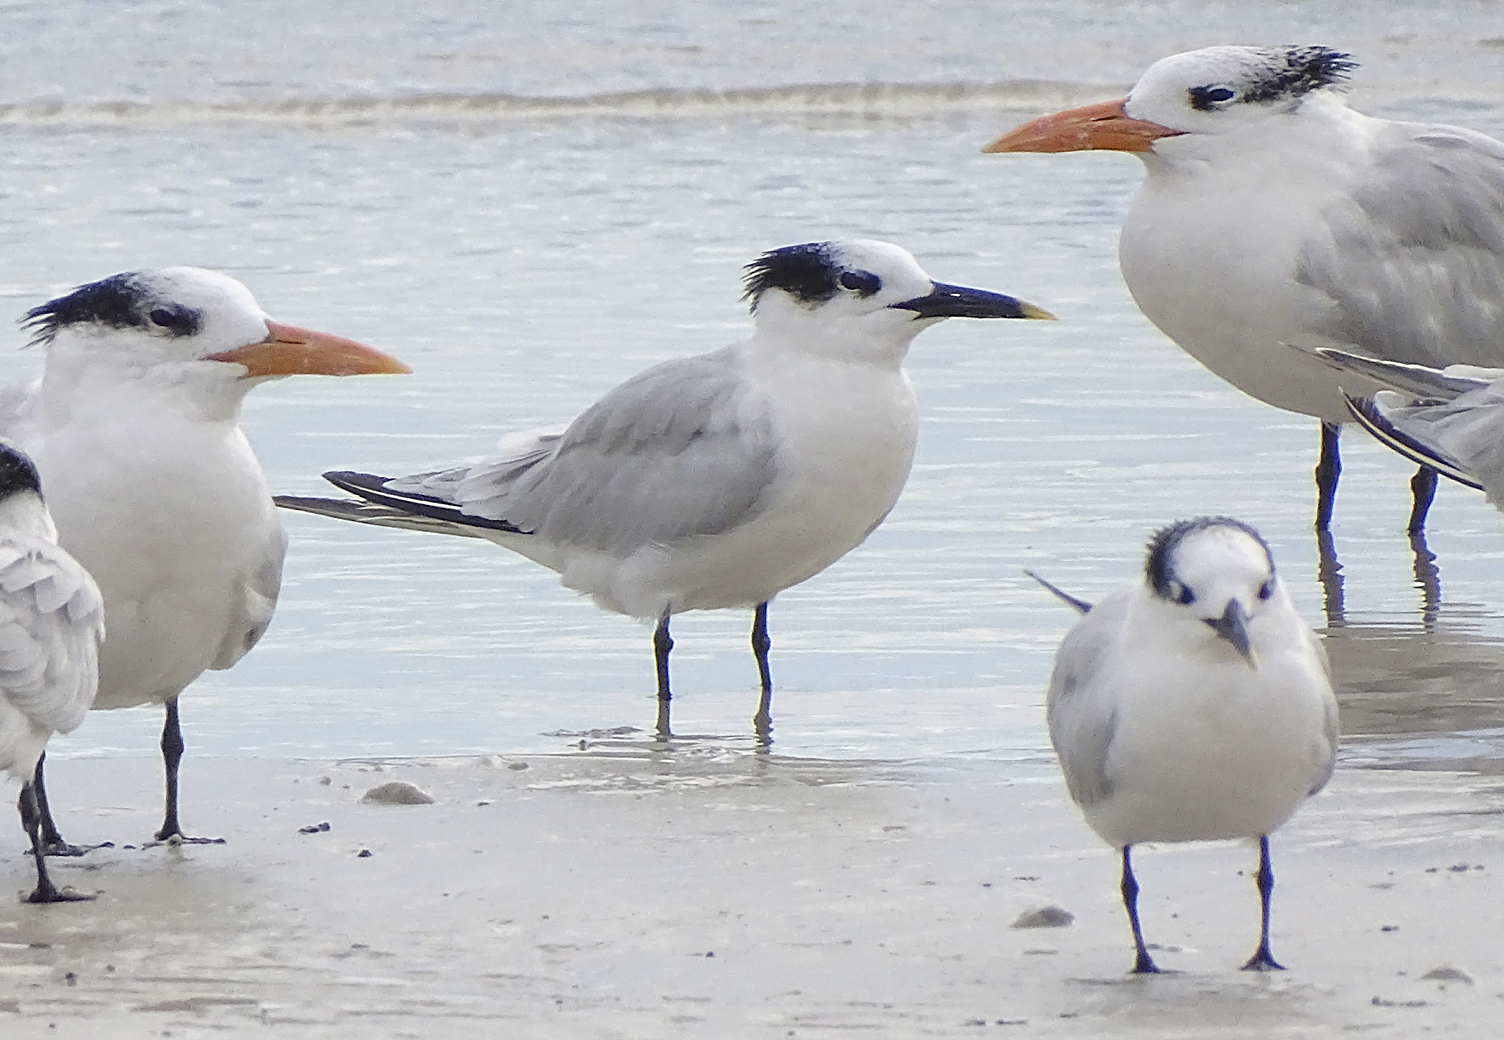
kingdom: Animalia
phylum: Chordata
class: Aves
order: Charadriiformes
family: Laridae
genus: Thalasseus
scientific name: Thalasseus maximus
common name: Royal tern
